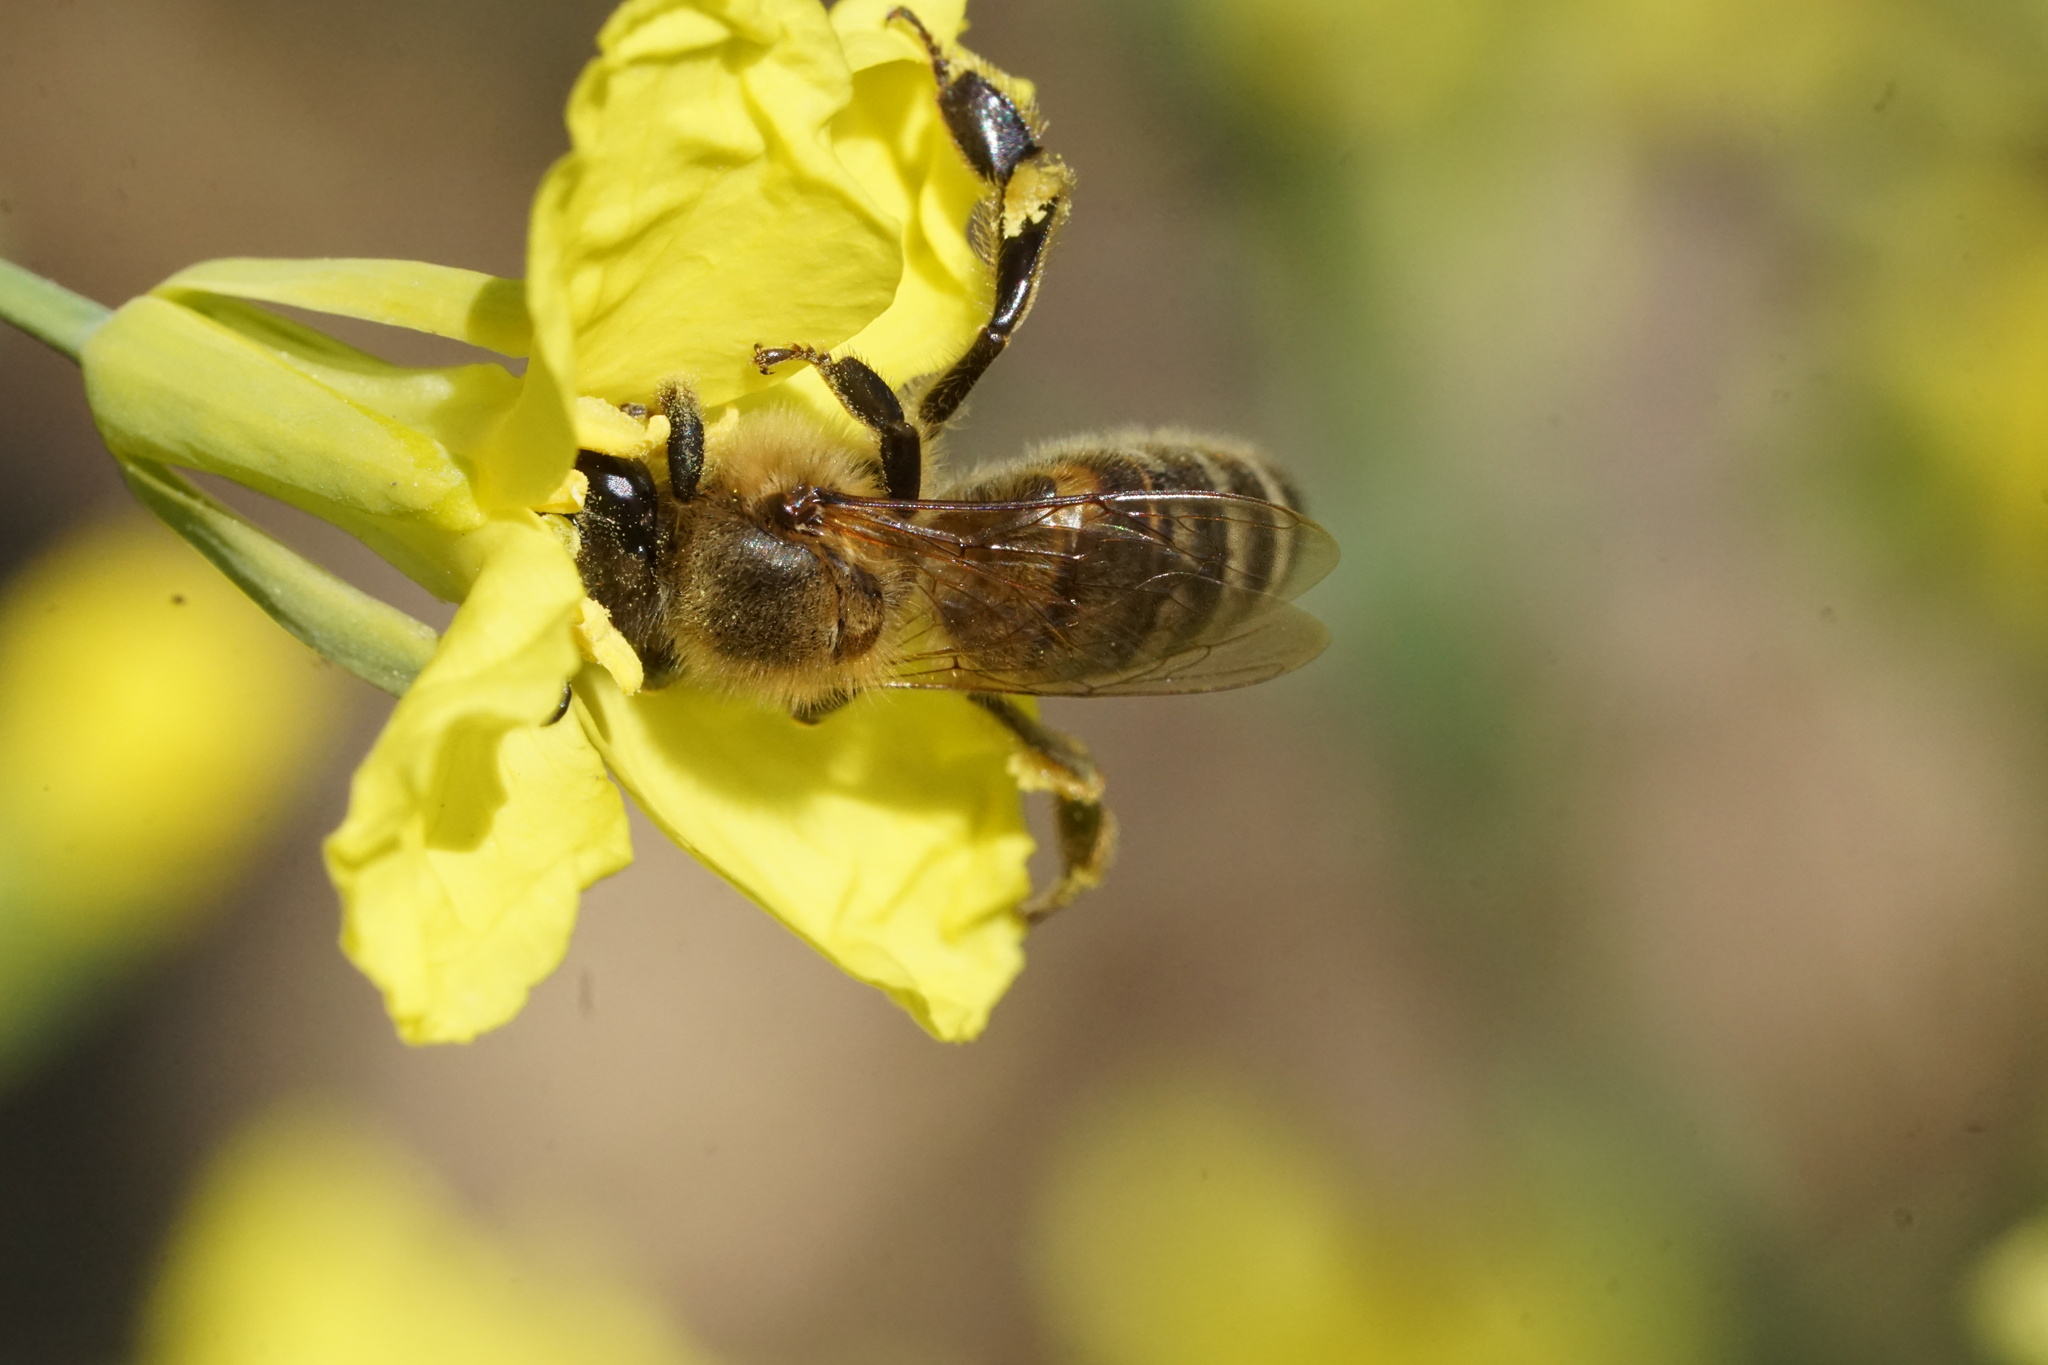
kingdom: Animalia
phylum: Arthropoda
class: Insecta
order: Hymenoptera
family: Apidae
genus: Apis
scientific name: Apis mellifera
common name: Honey bee
